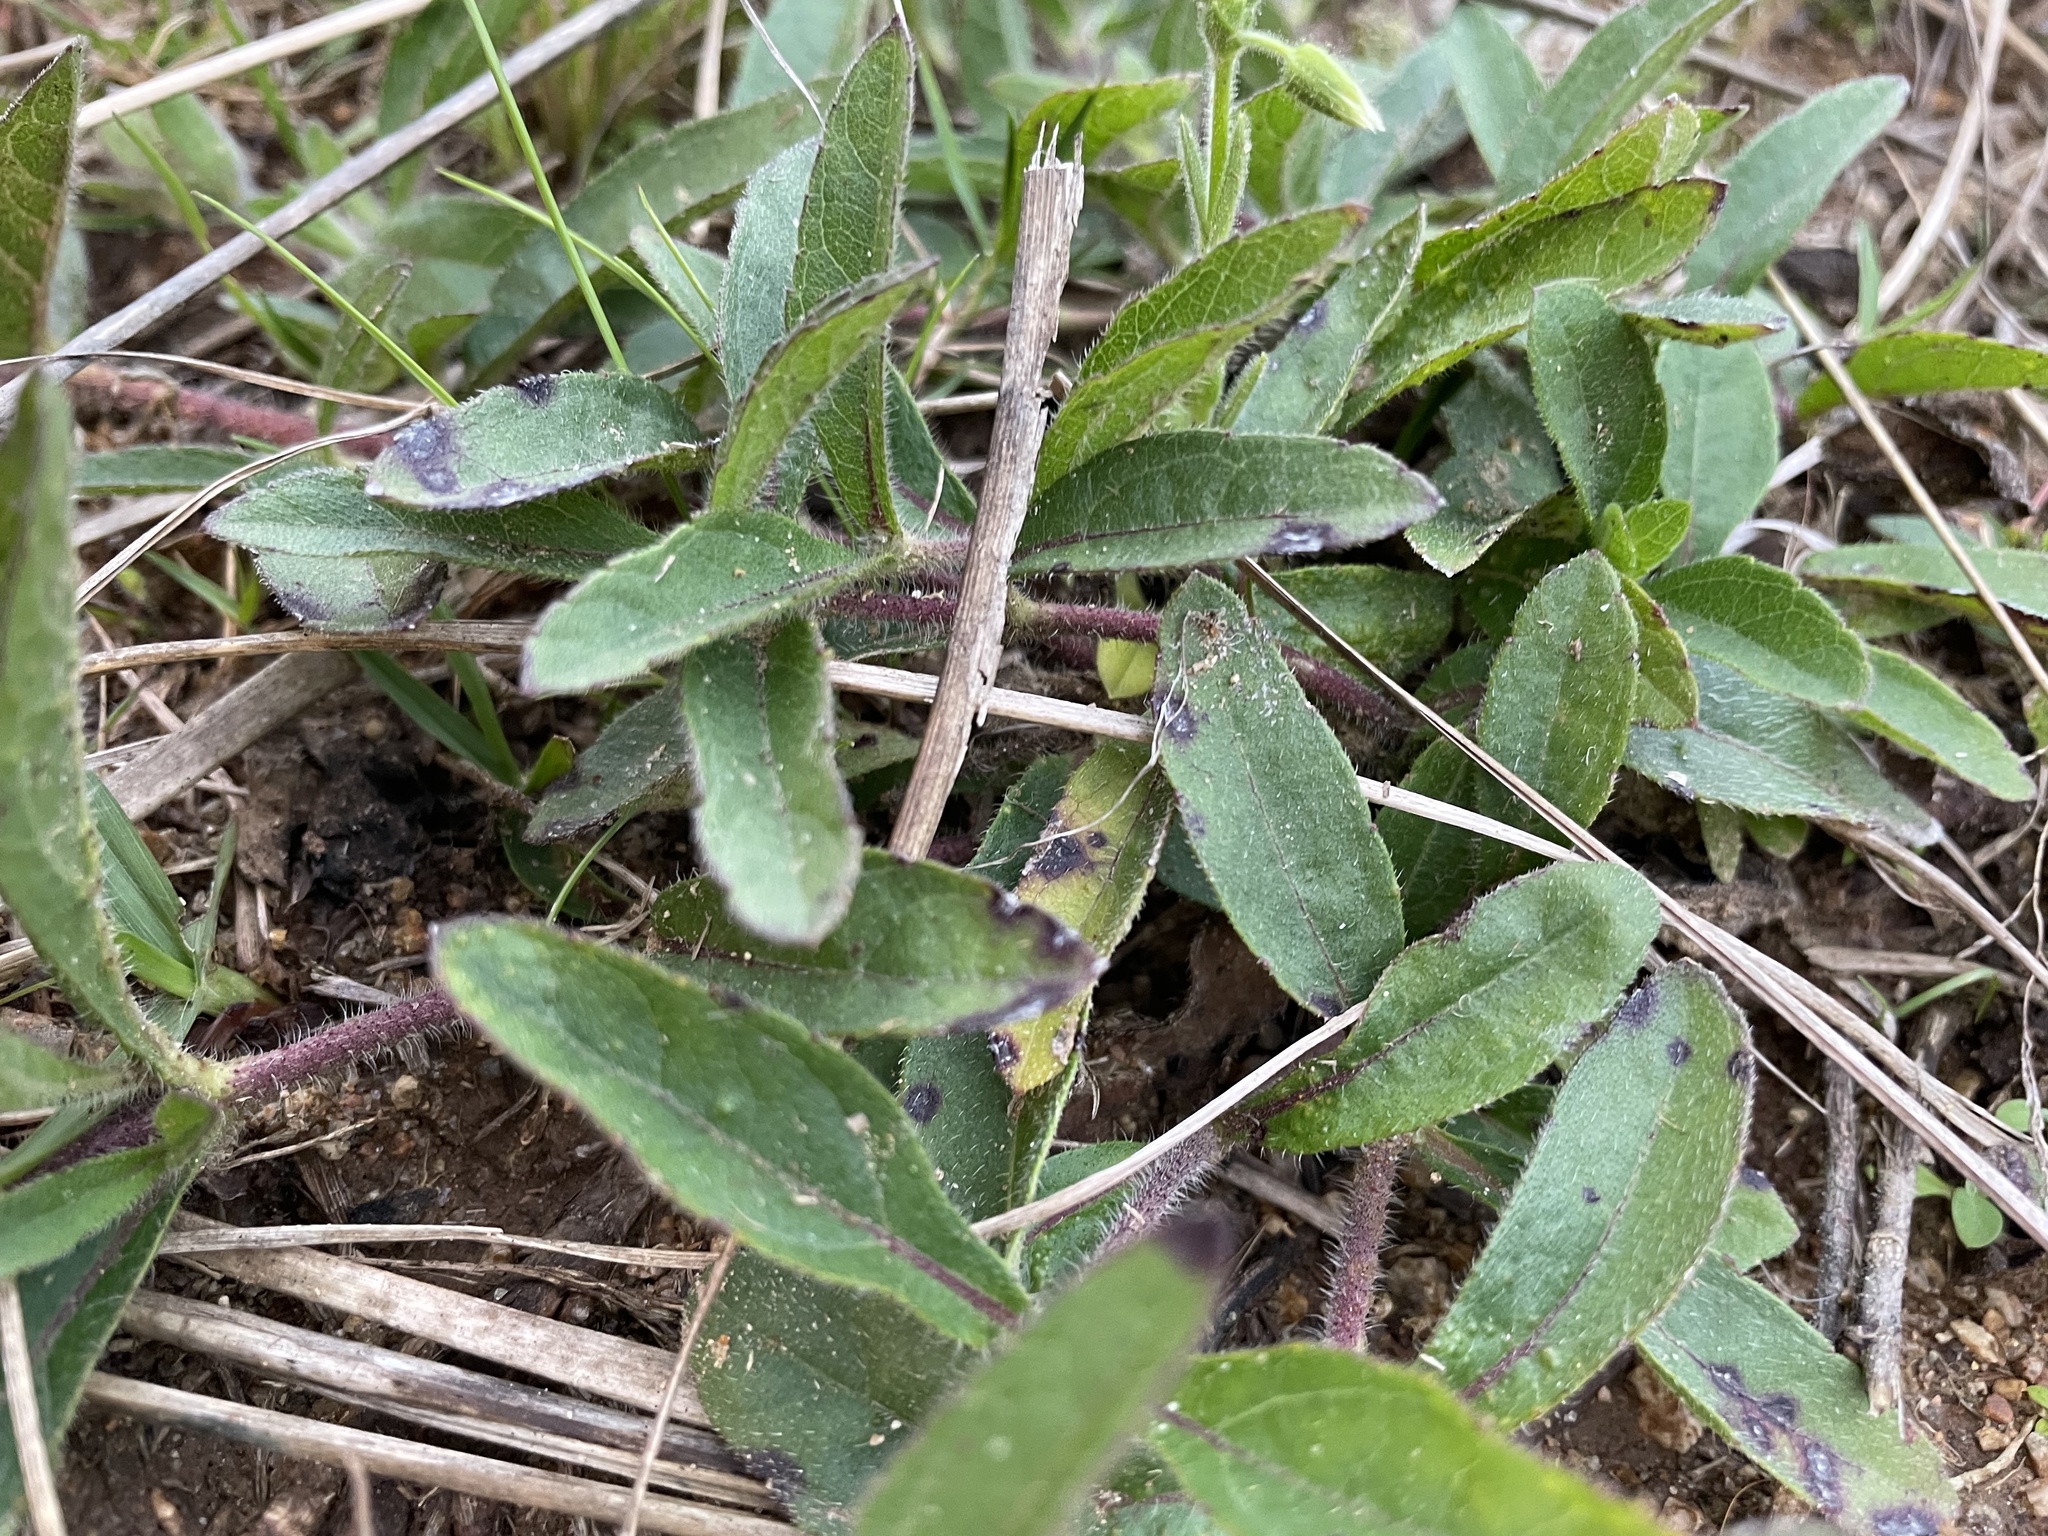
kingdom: Plantae
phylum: Tracheophyta
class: Magnoliopsida
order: Asterales
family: Asteraceae
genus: Wedelia
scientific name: Wedelia montevidensis
